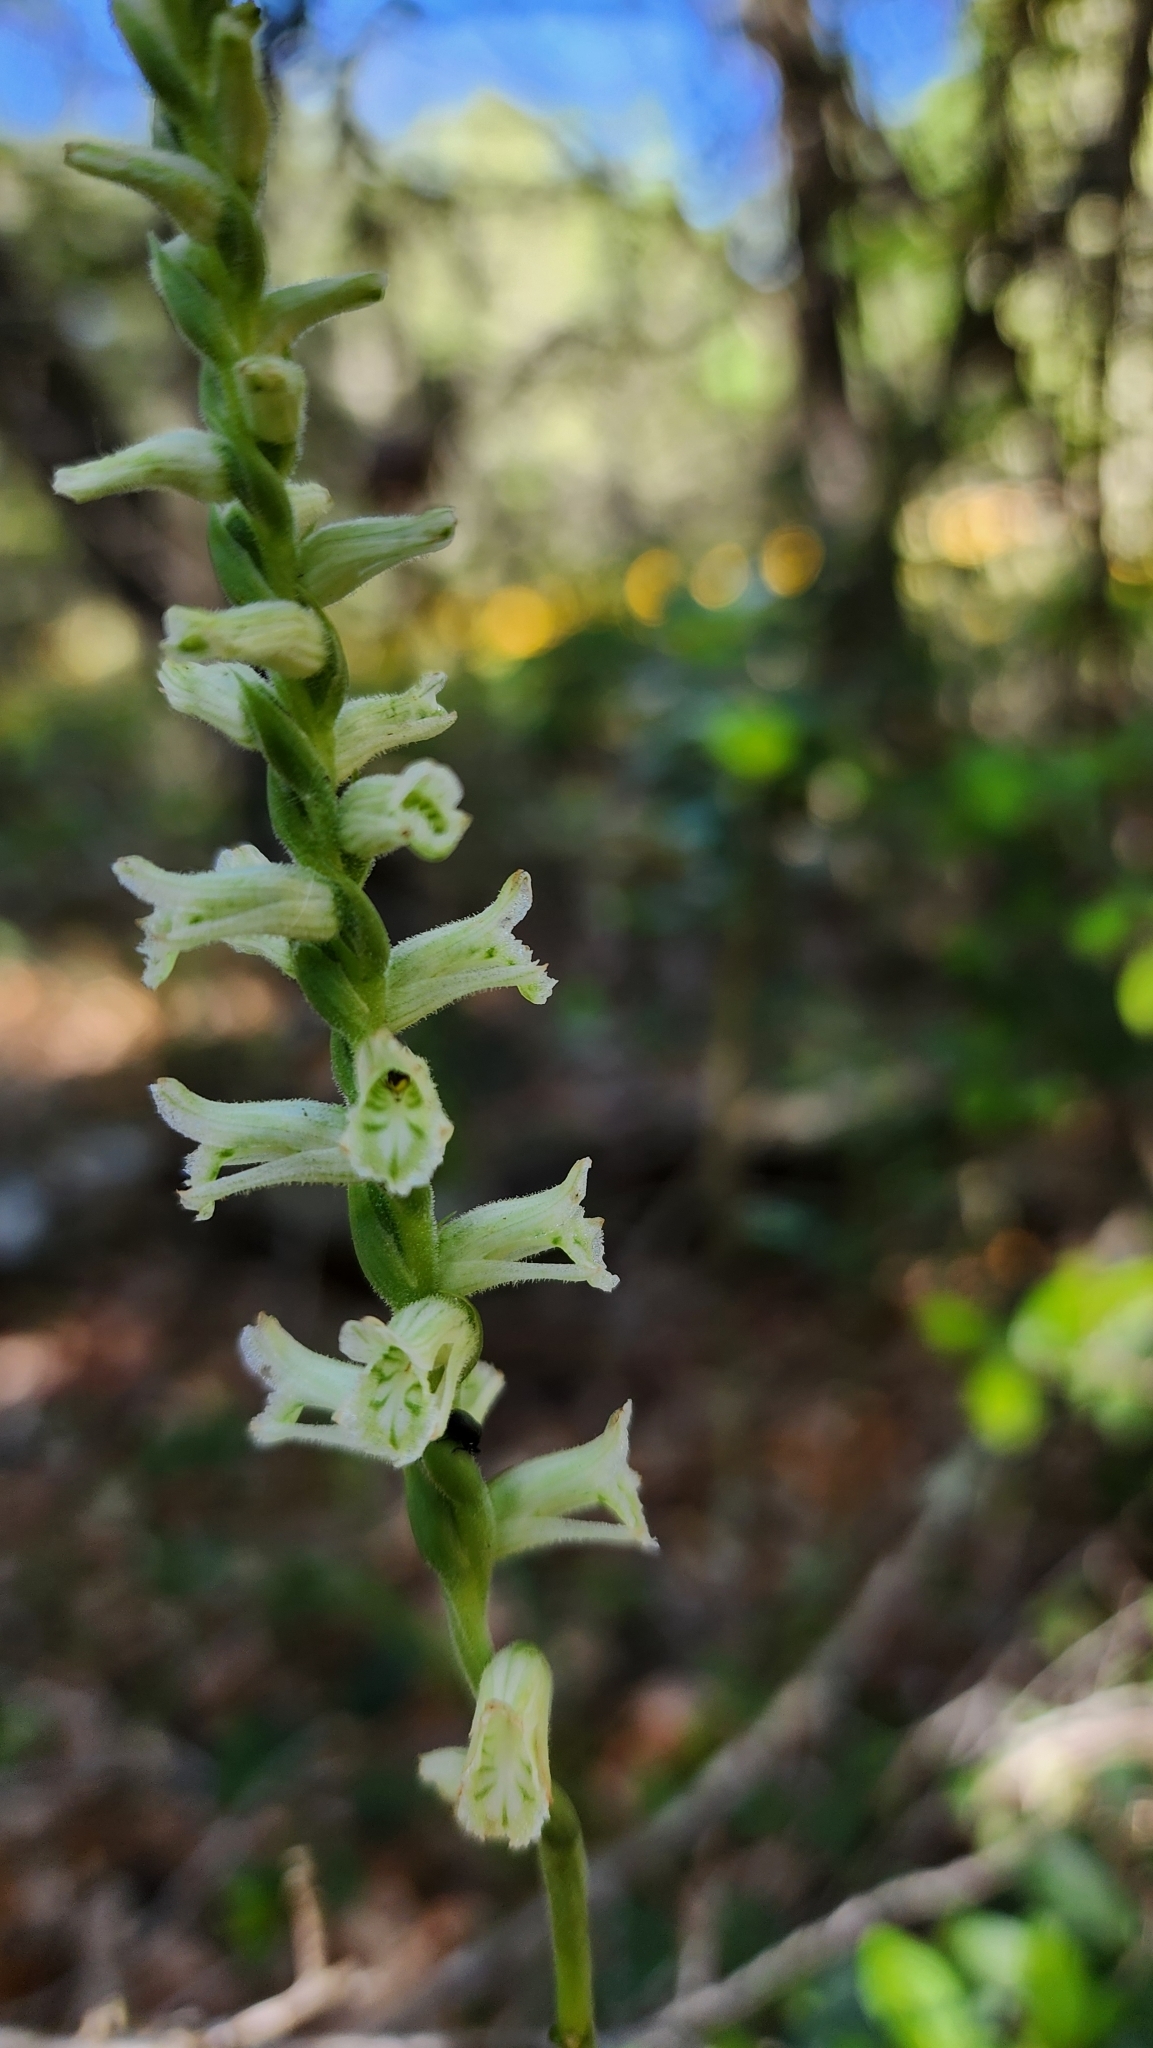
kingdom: Plantae
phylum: Tracheophyta
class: Liliopsida
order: Asparagales
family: Orchidaceae
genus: Spiranthes
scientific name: Spiranthes praecox
